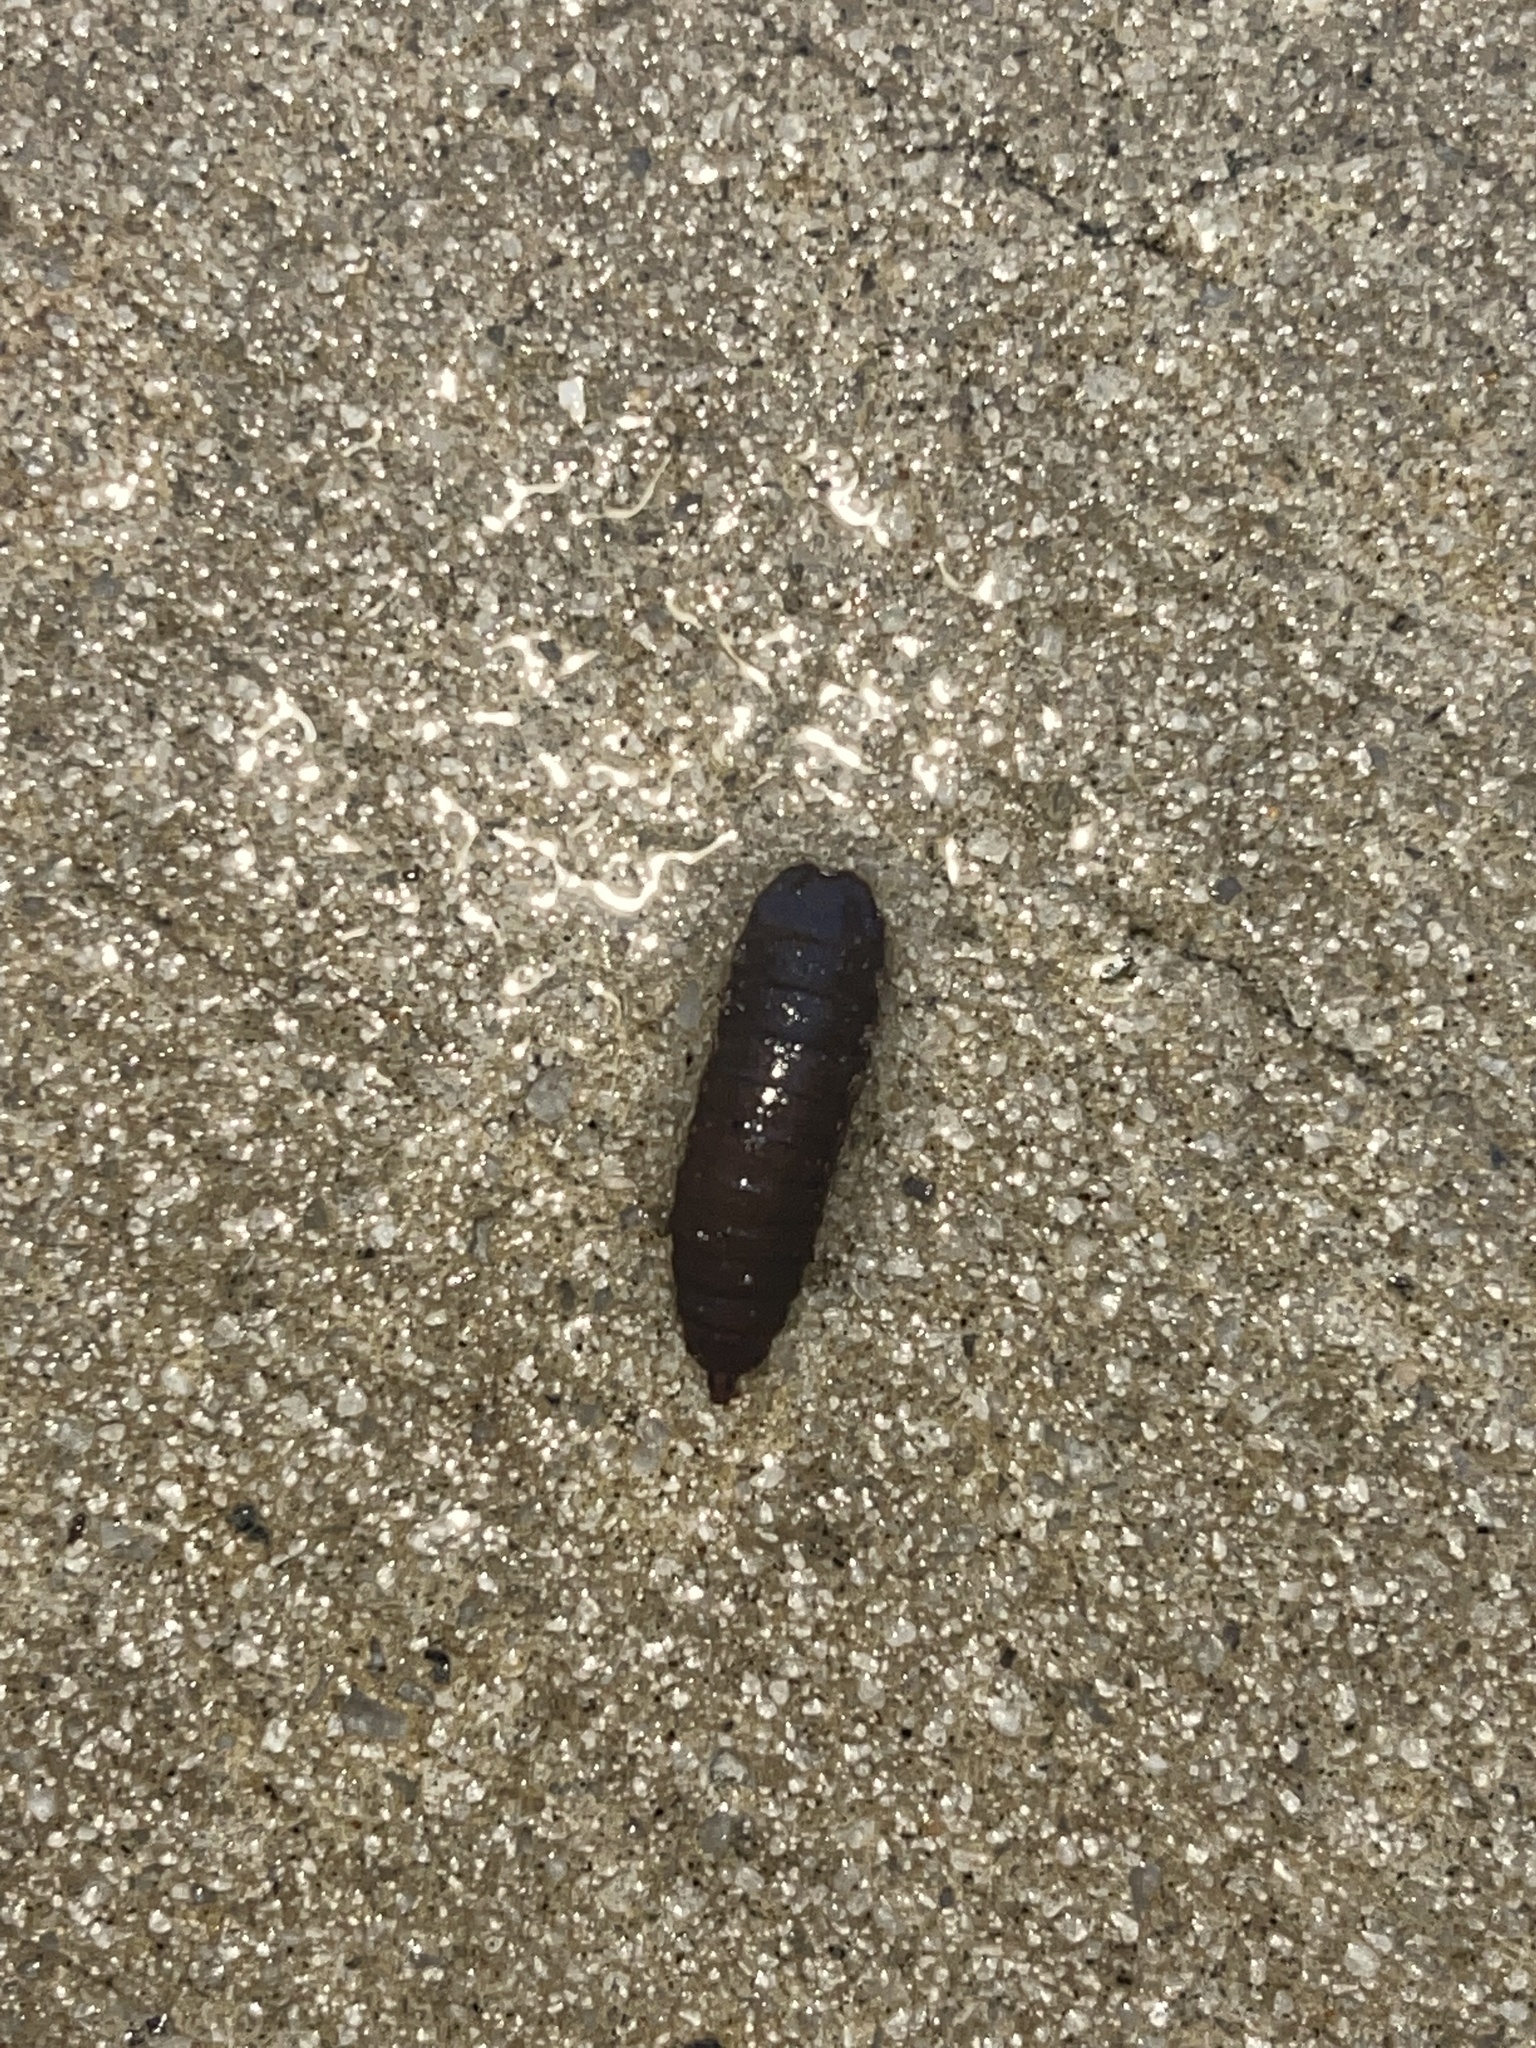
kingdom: Animalia
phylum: Arthropoda
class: Insecta
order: Diptera
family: Stratiomyidae
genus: Hermetia
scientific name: Hermetia illucens
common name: Black soldier fly
